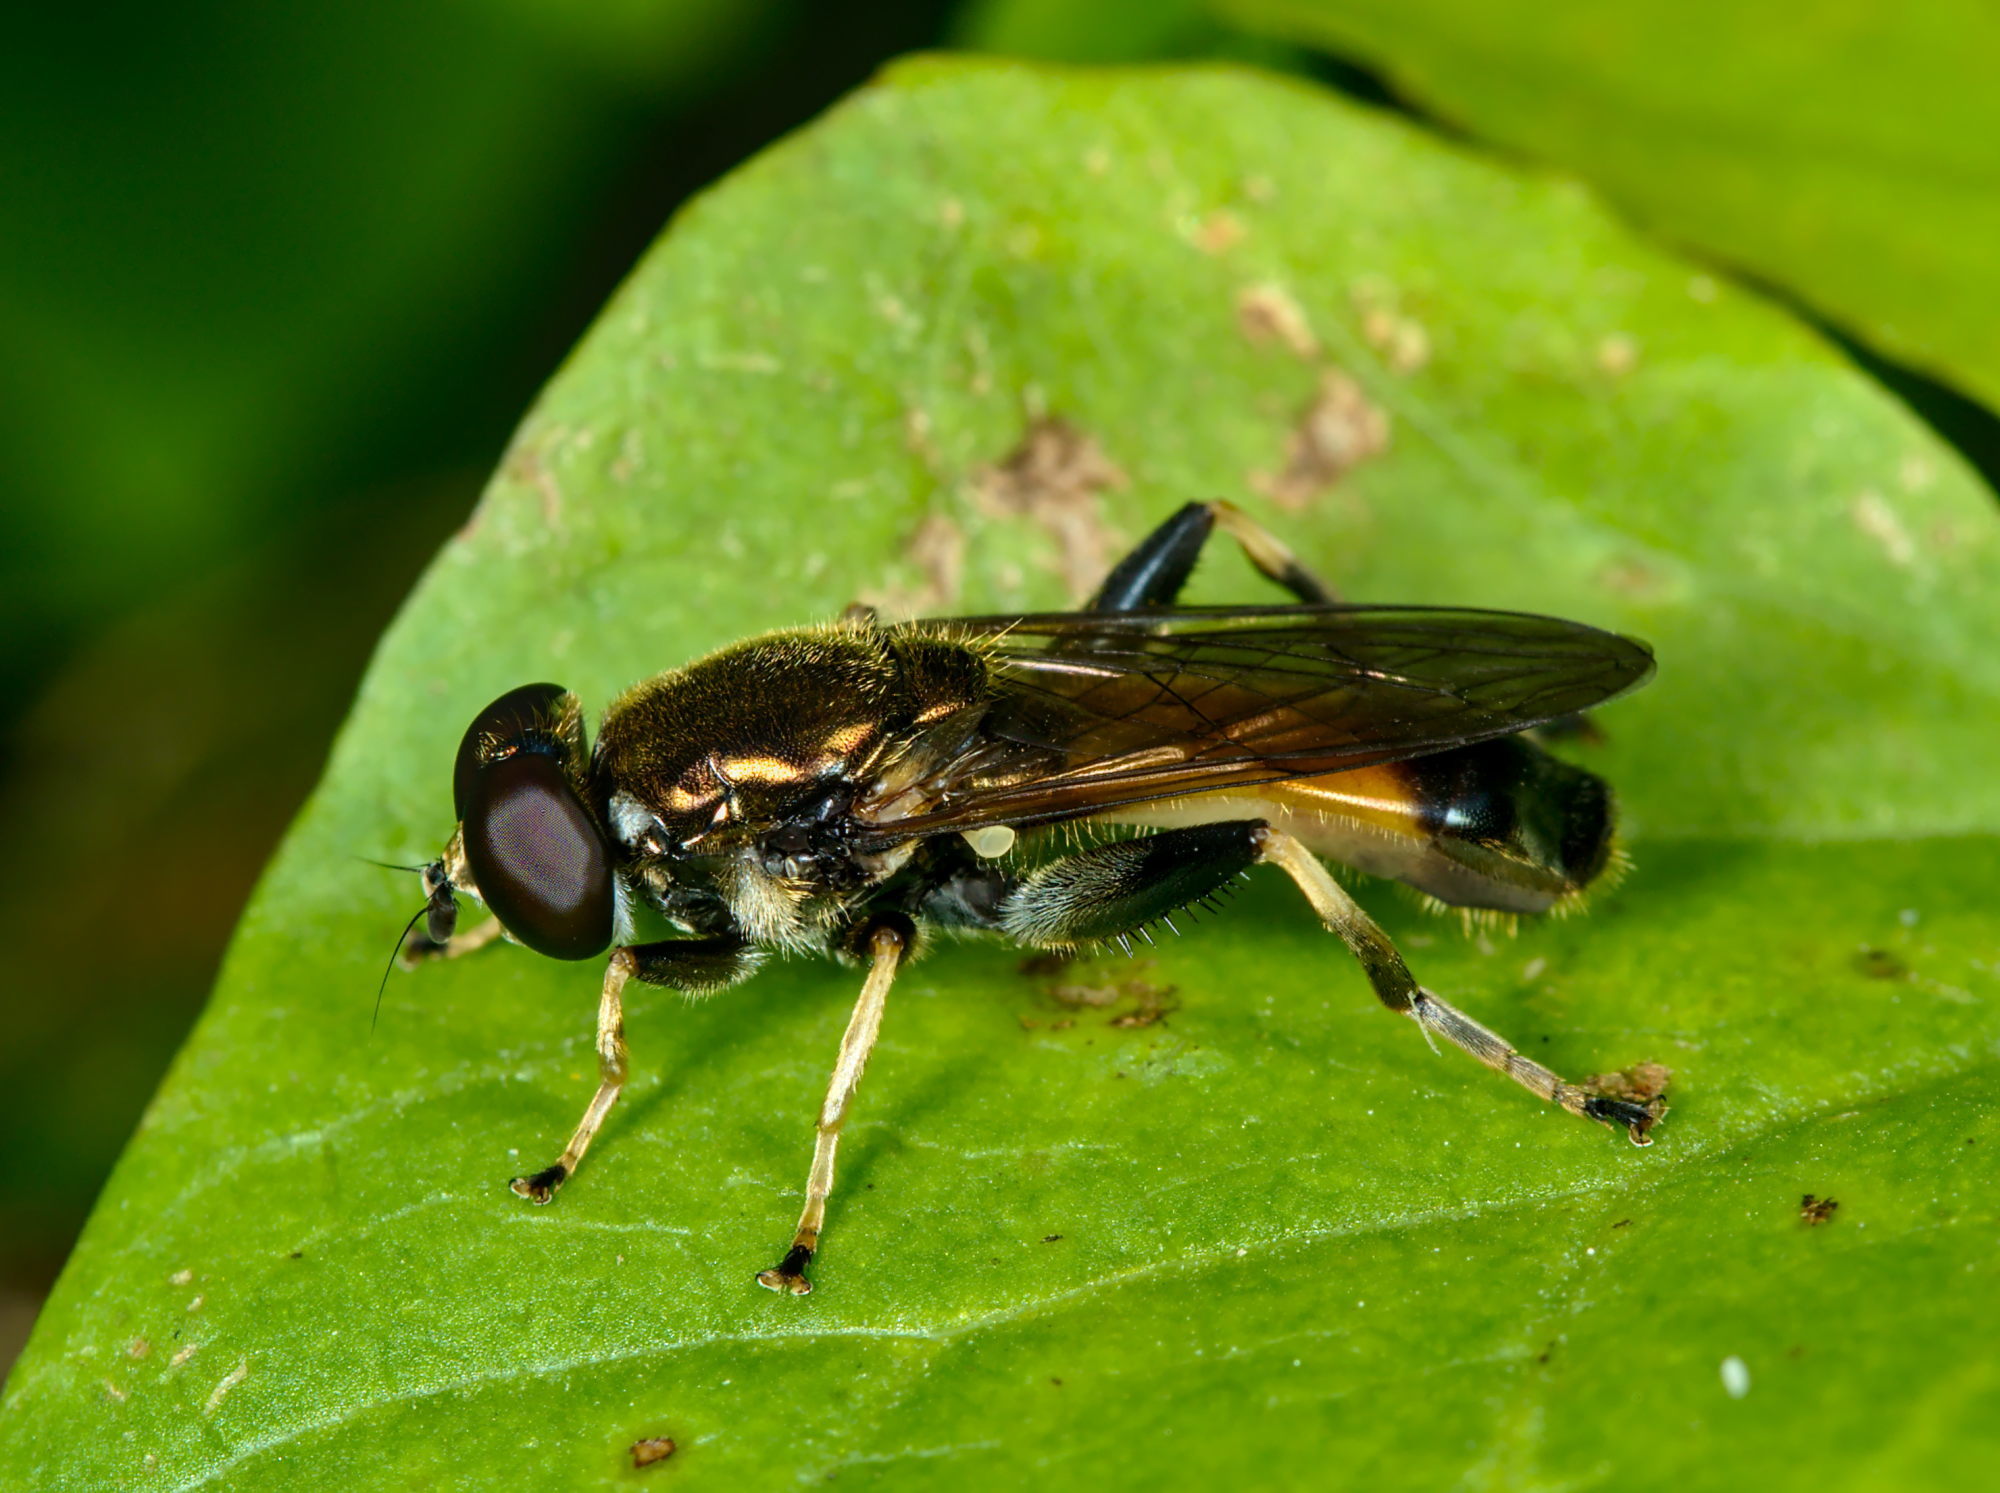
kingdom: Animalia
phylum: Arthropoda
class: Insecta
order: Diptera
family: Syrphidae
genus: Xylota
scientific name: Xylota segnis
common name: Brown-toed forest fly
